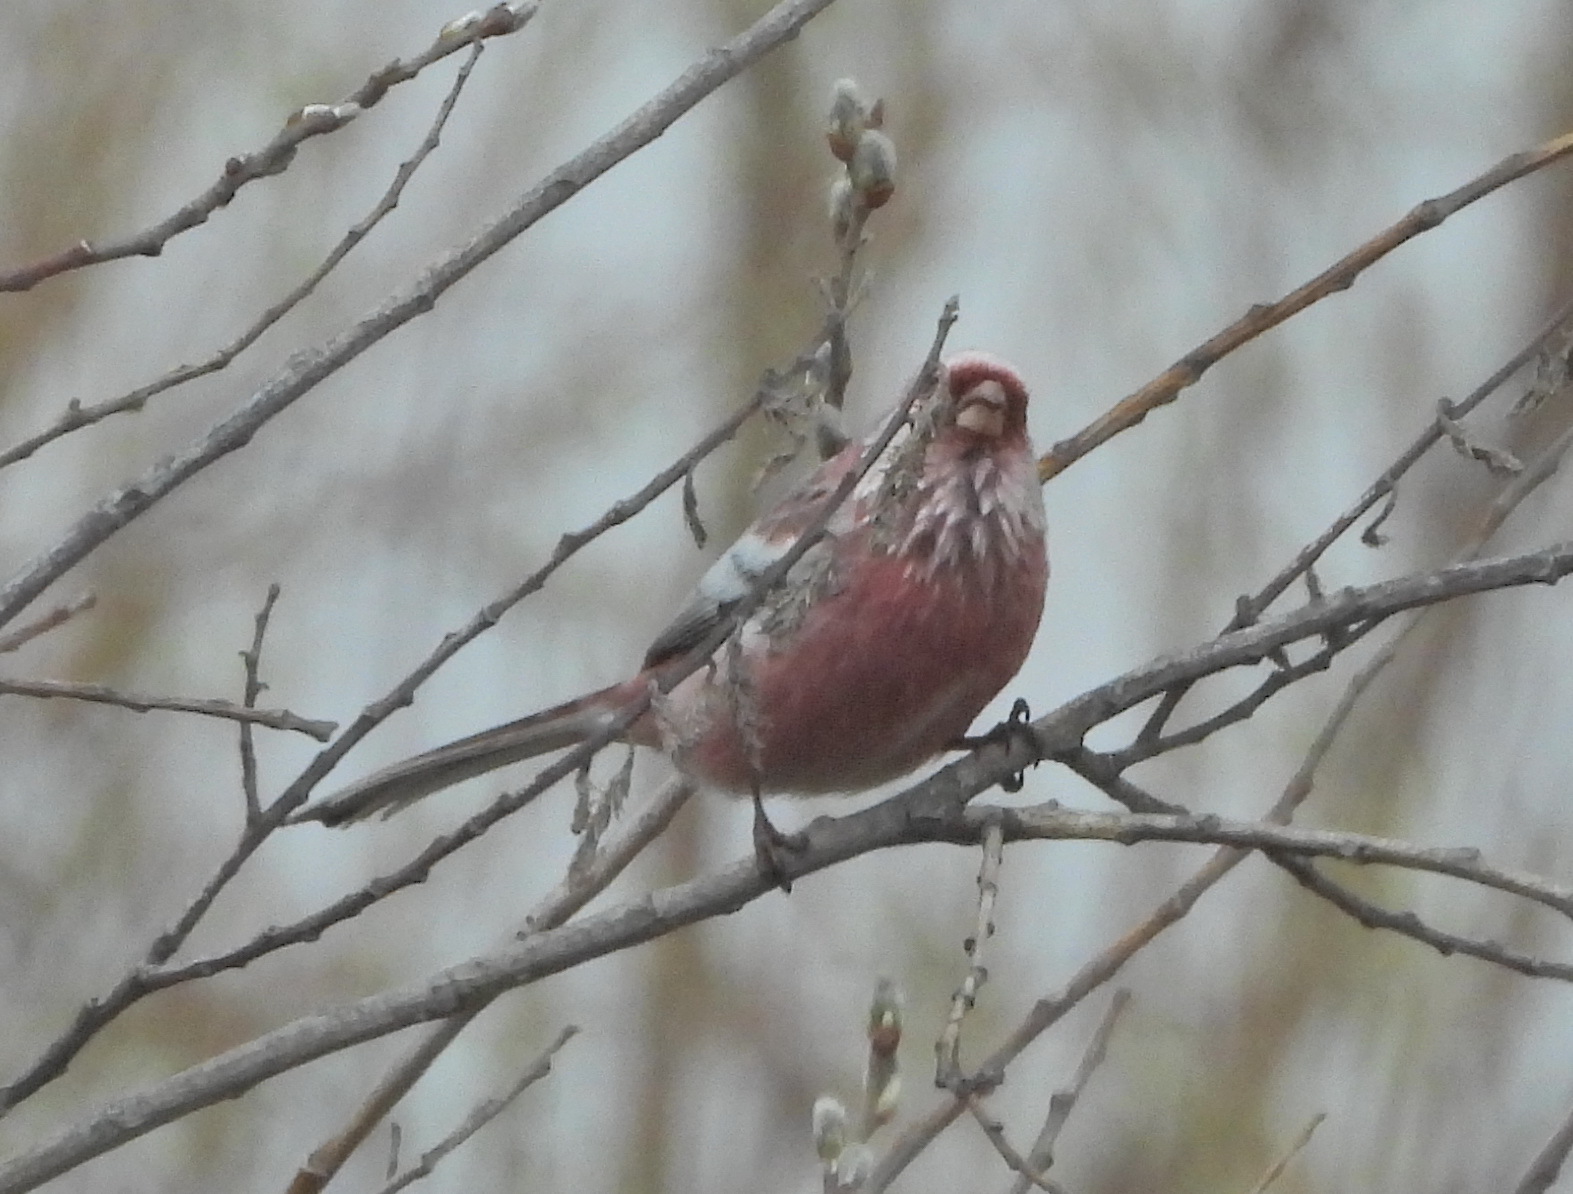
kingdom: Animalia
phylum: Chordata
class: Aves
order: Passeriformes
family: Fringillidae
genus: Carpodacus
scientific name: Carpodacus sibiricus
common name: Long-tailed rosefinch
